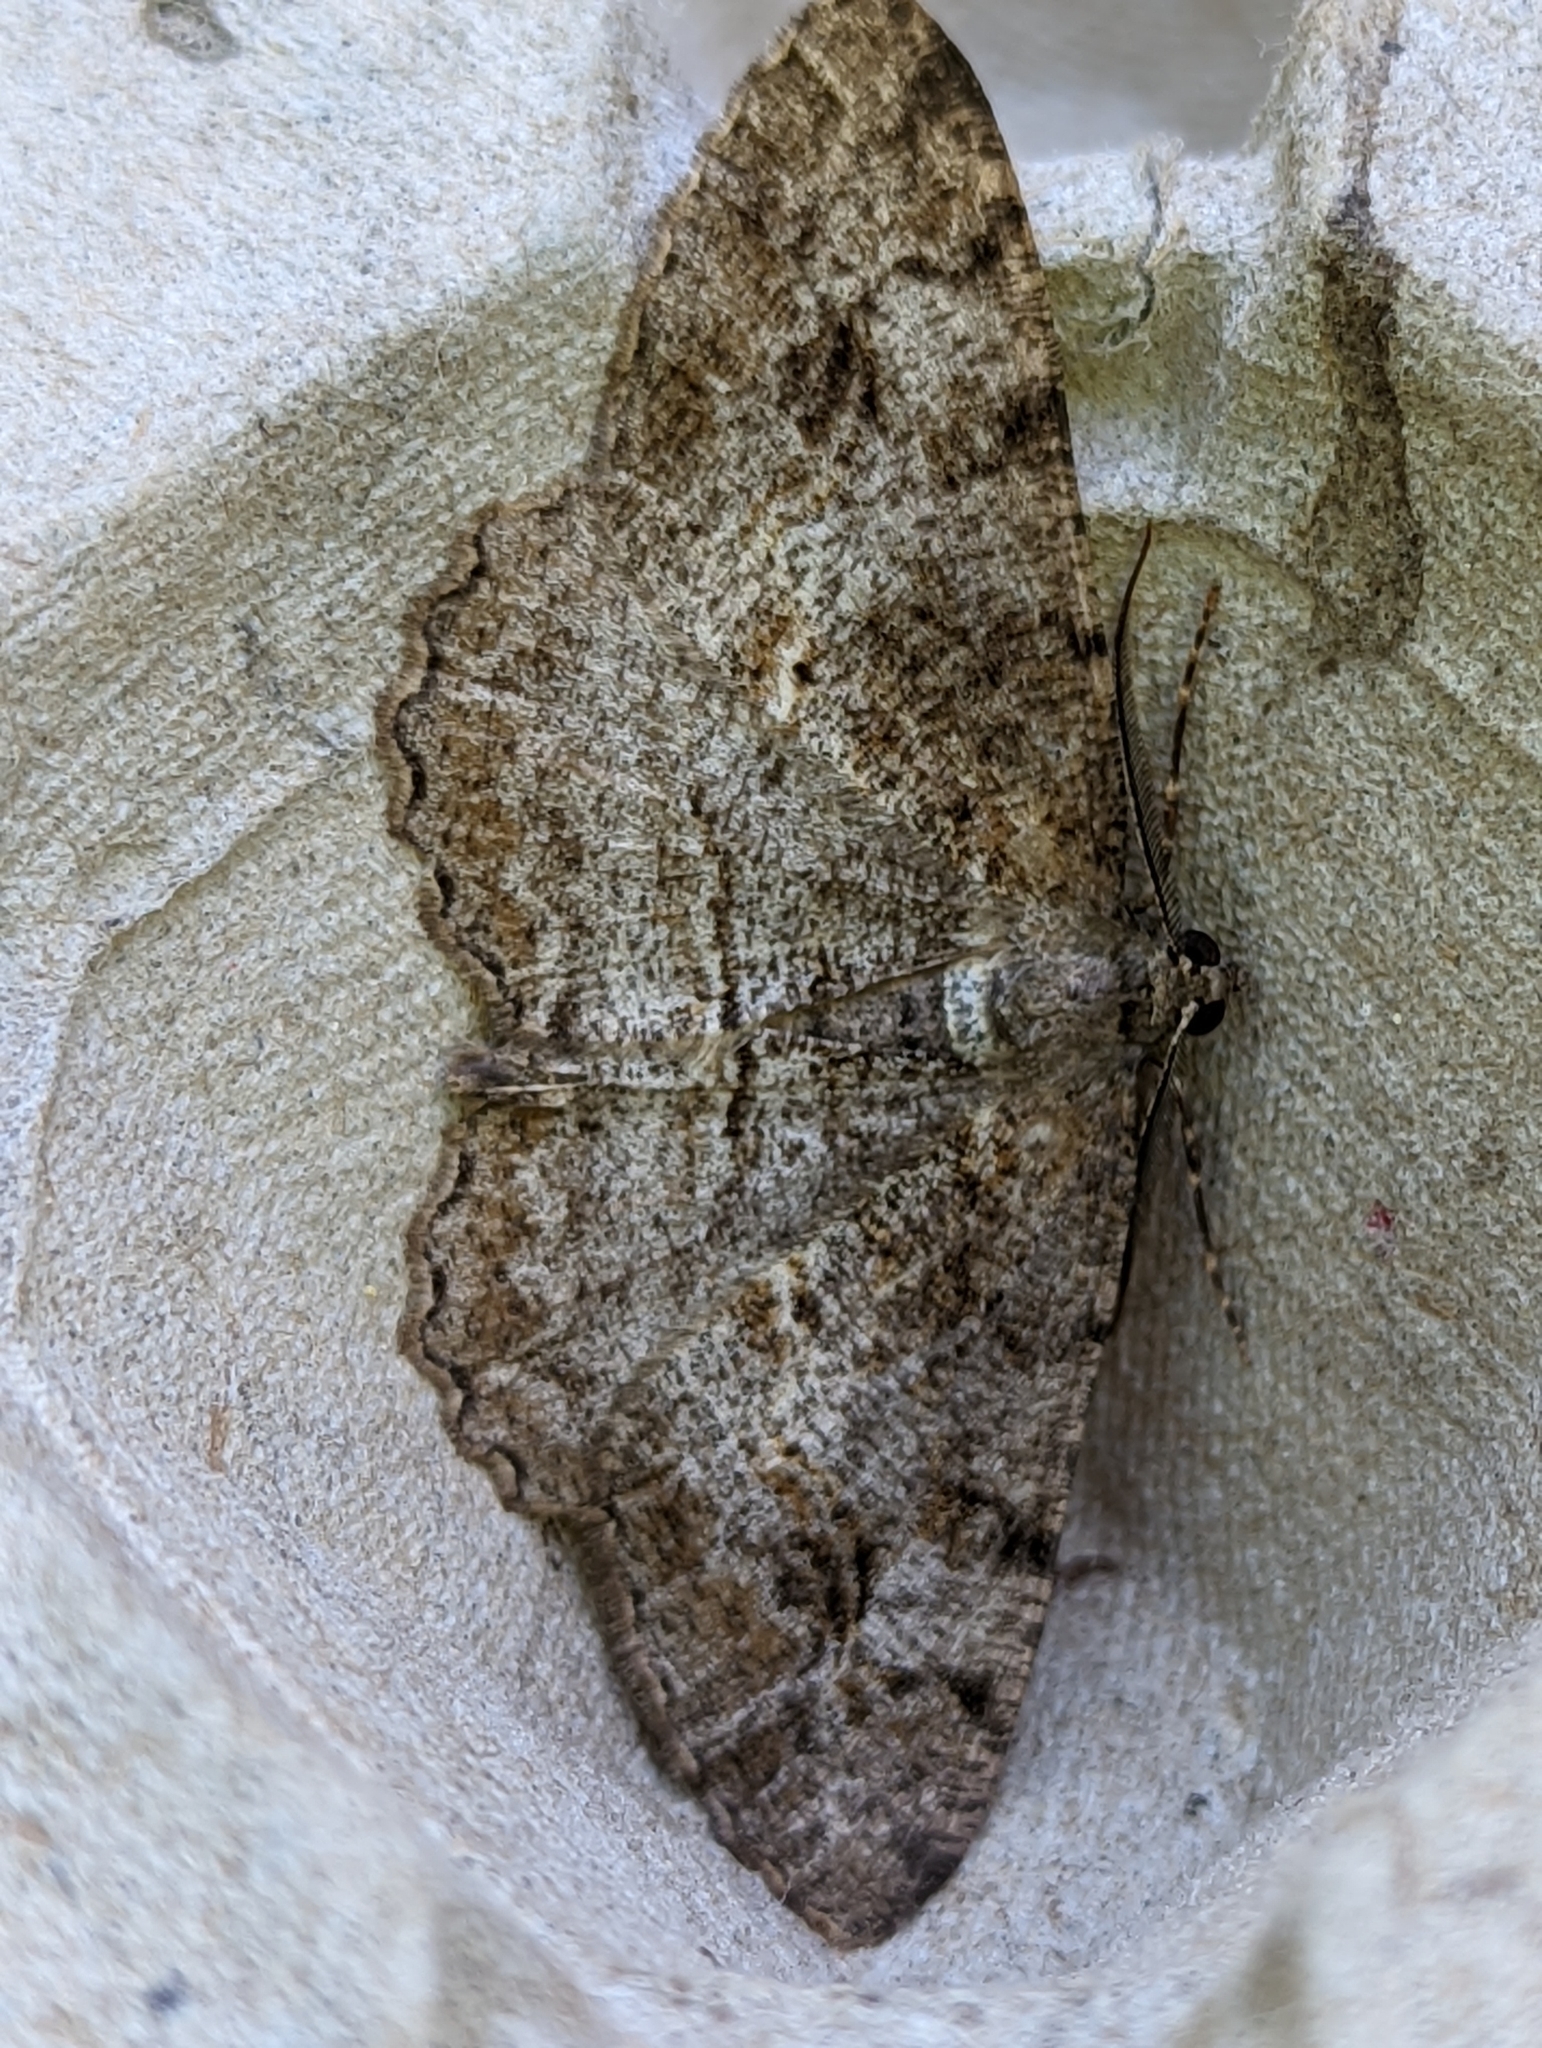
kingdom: Animalia
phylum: Arthropoda
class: Insecta
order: Lepidoptera
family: Geometridae
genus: Alcis
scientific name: Alcis repandata
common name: Mottled beauty
